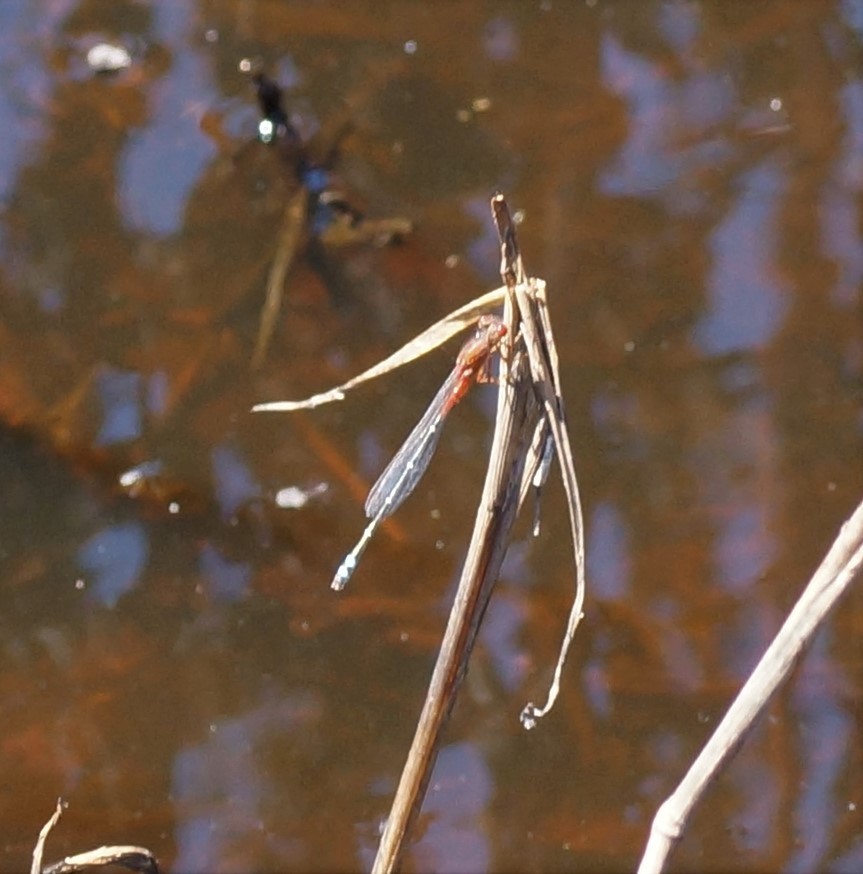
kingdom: Animalia
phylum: Arthropoda
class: Insecta
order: Odonata
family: Coenagrionidae
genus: Xanthagrion
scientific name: Xanthagrion erythroneurum
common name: Red and blue damsel
